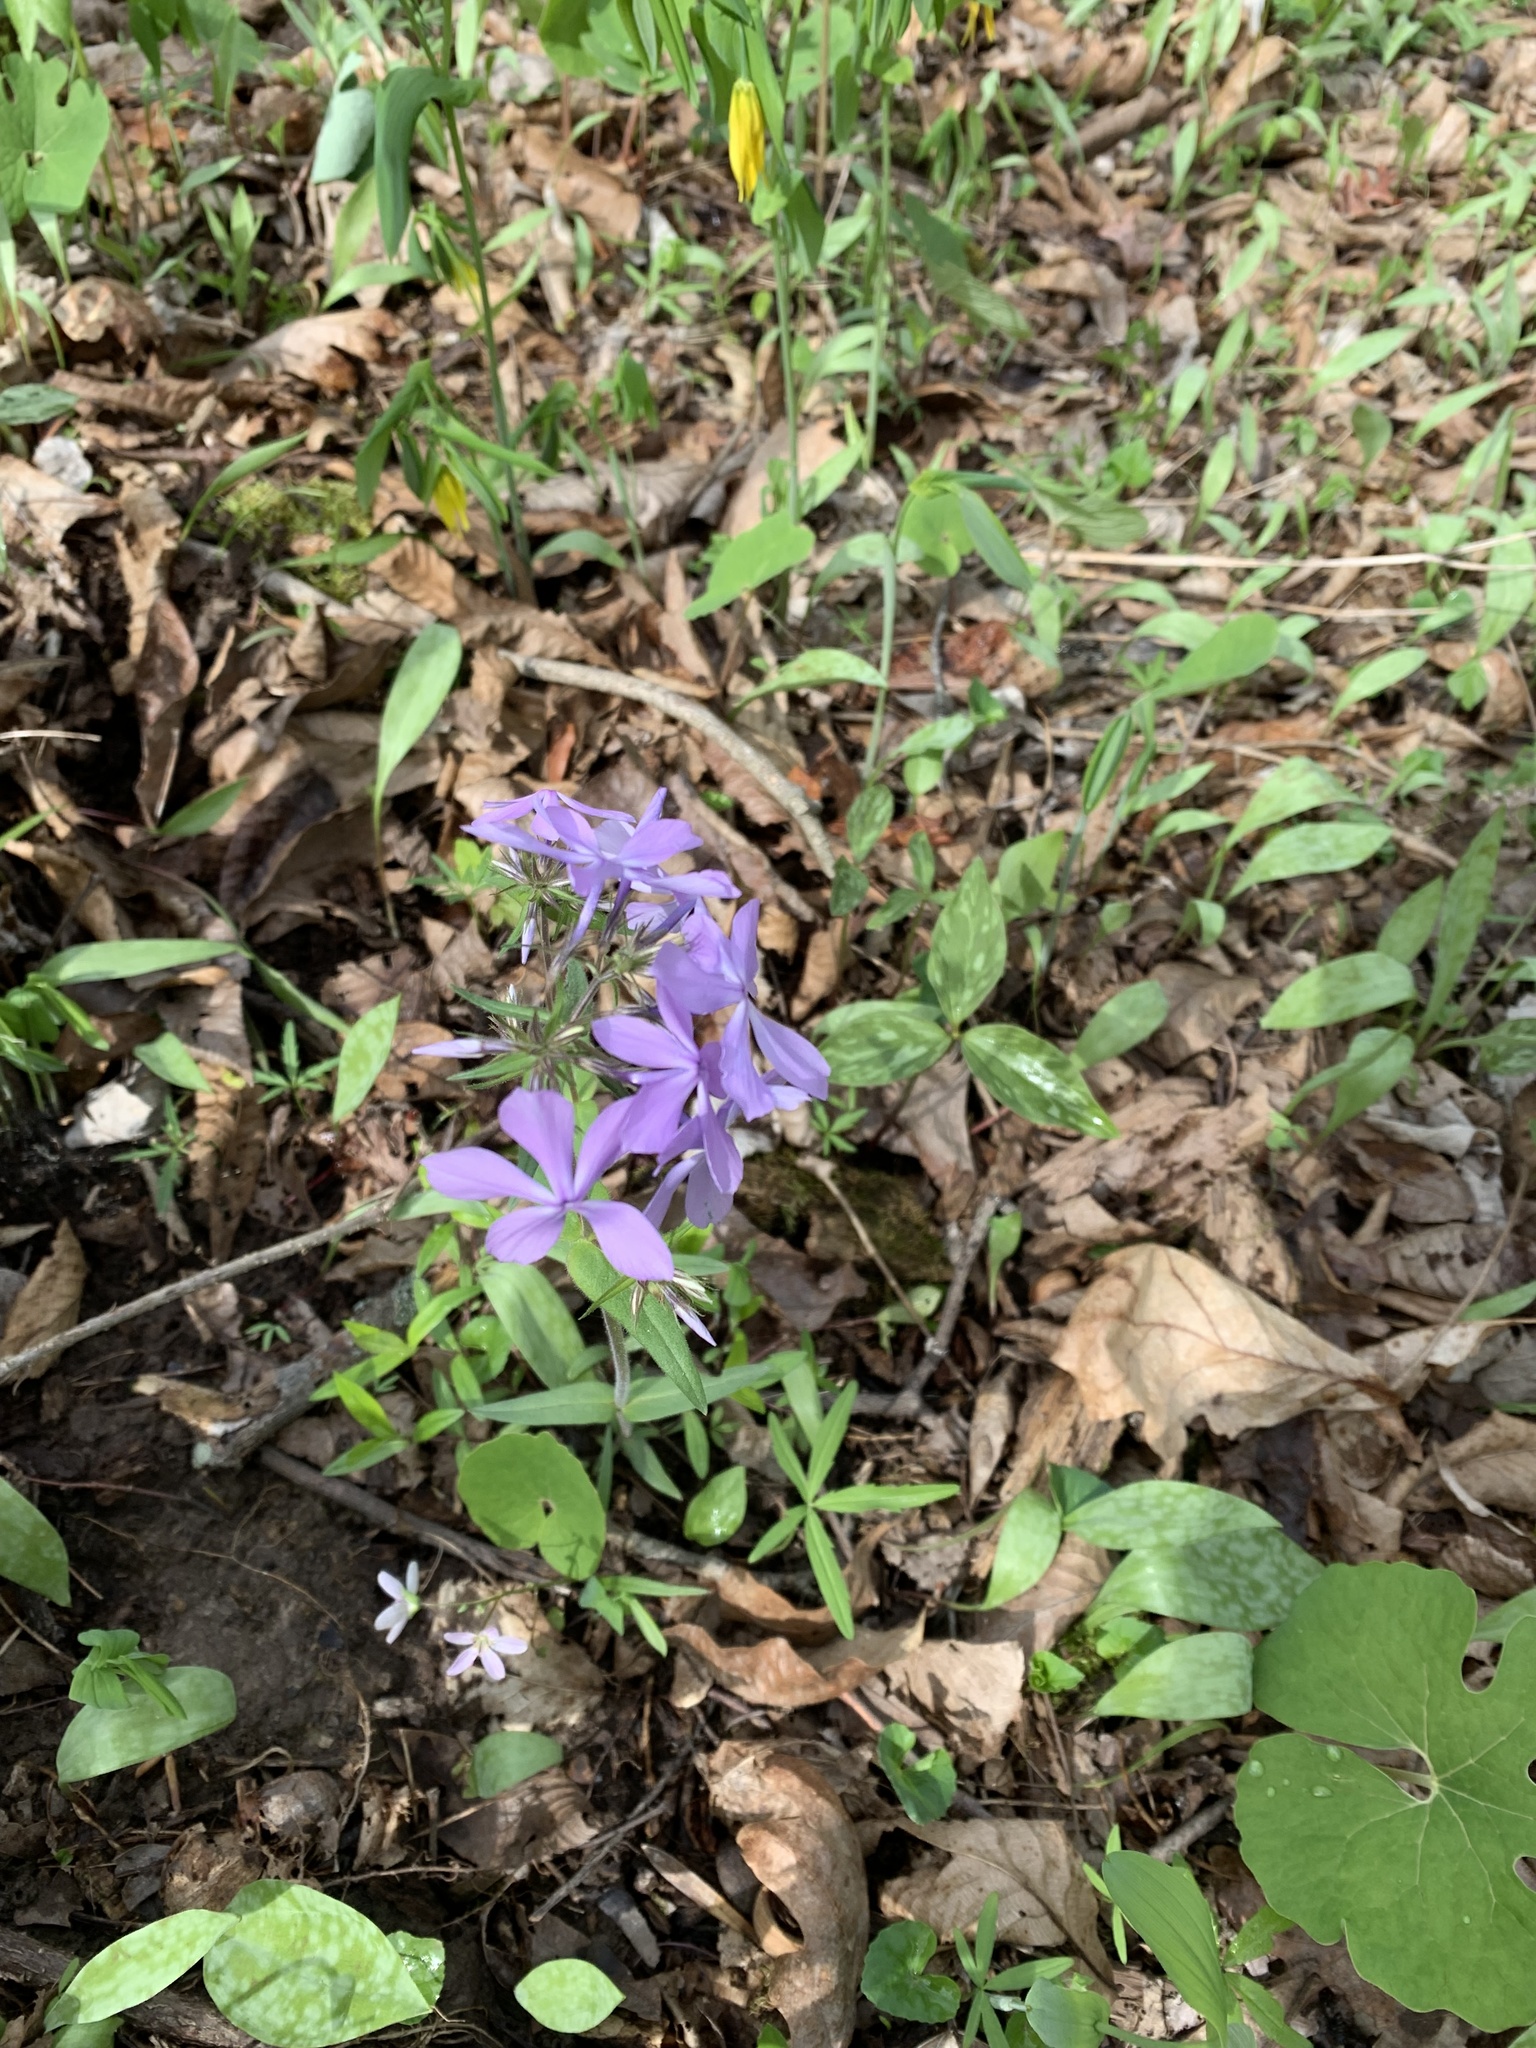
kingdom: Plantae
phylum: Tracheophyta
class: Magnoliopsida
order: Ericales
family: Polemoniaceae
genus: Phlox
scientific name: Phlox divaricata
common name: Blue phlox
